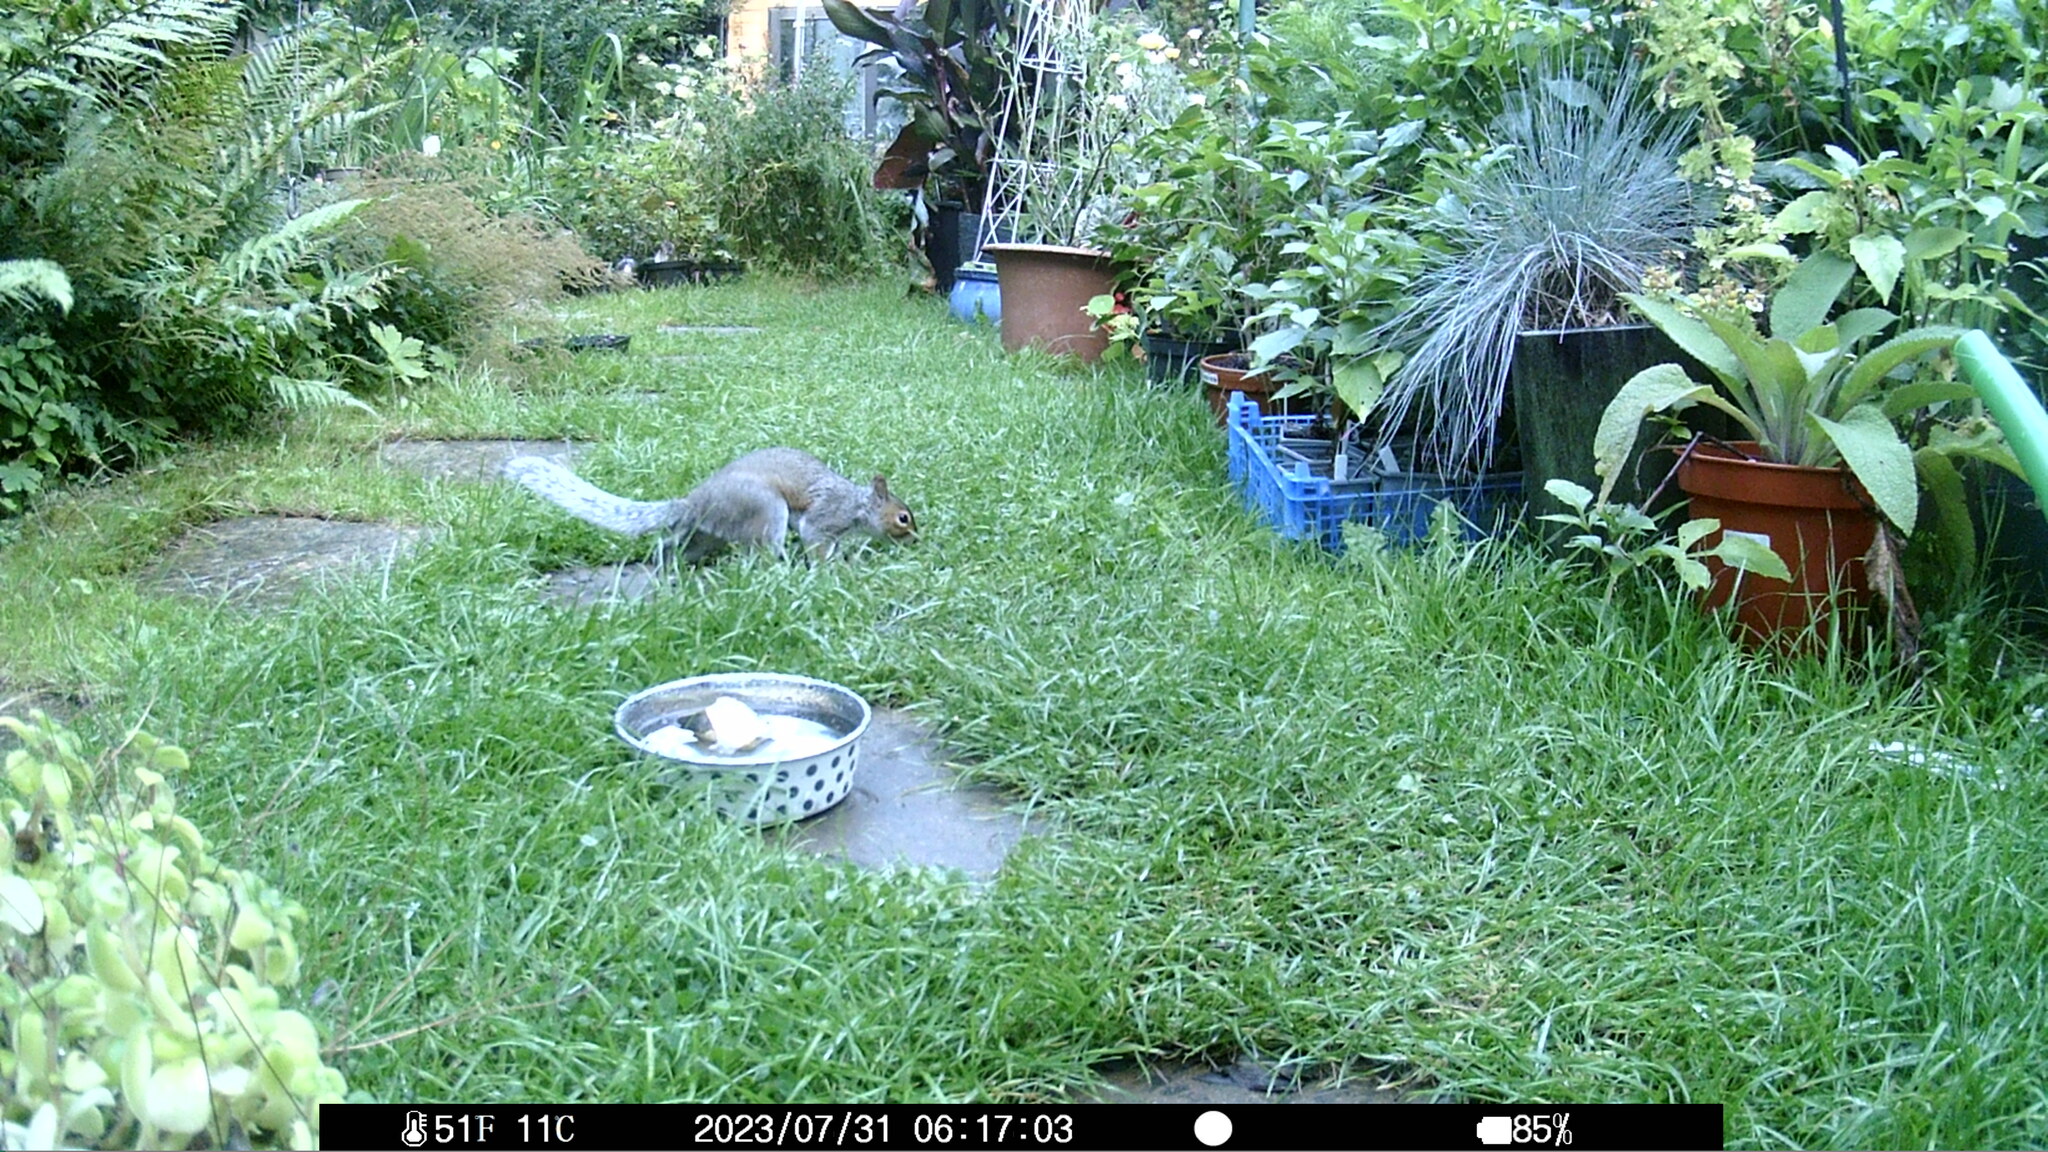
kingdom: Animalia
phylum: Chordata
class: Mammalia
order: Rodentia
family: Sciuridae
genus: Sciurus
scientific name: Sciurus carolinensis
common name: Eastern gray squirrel
